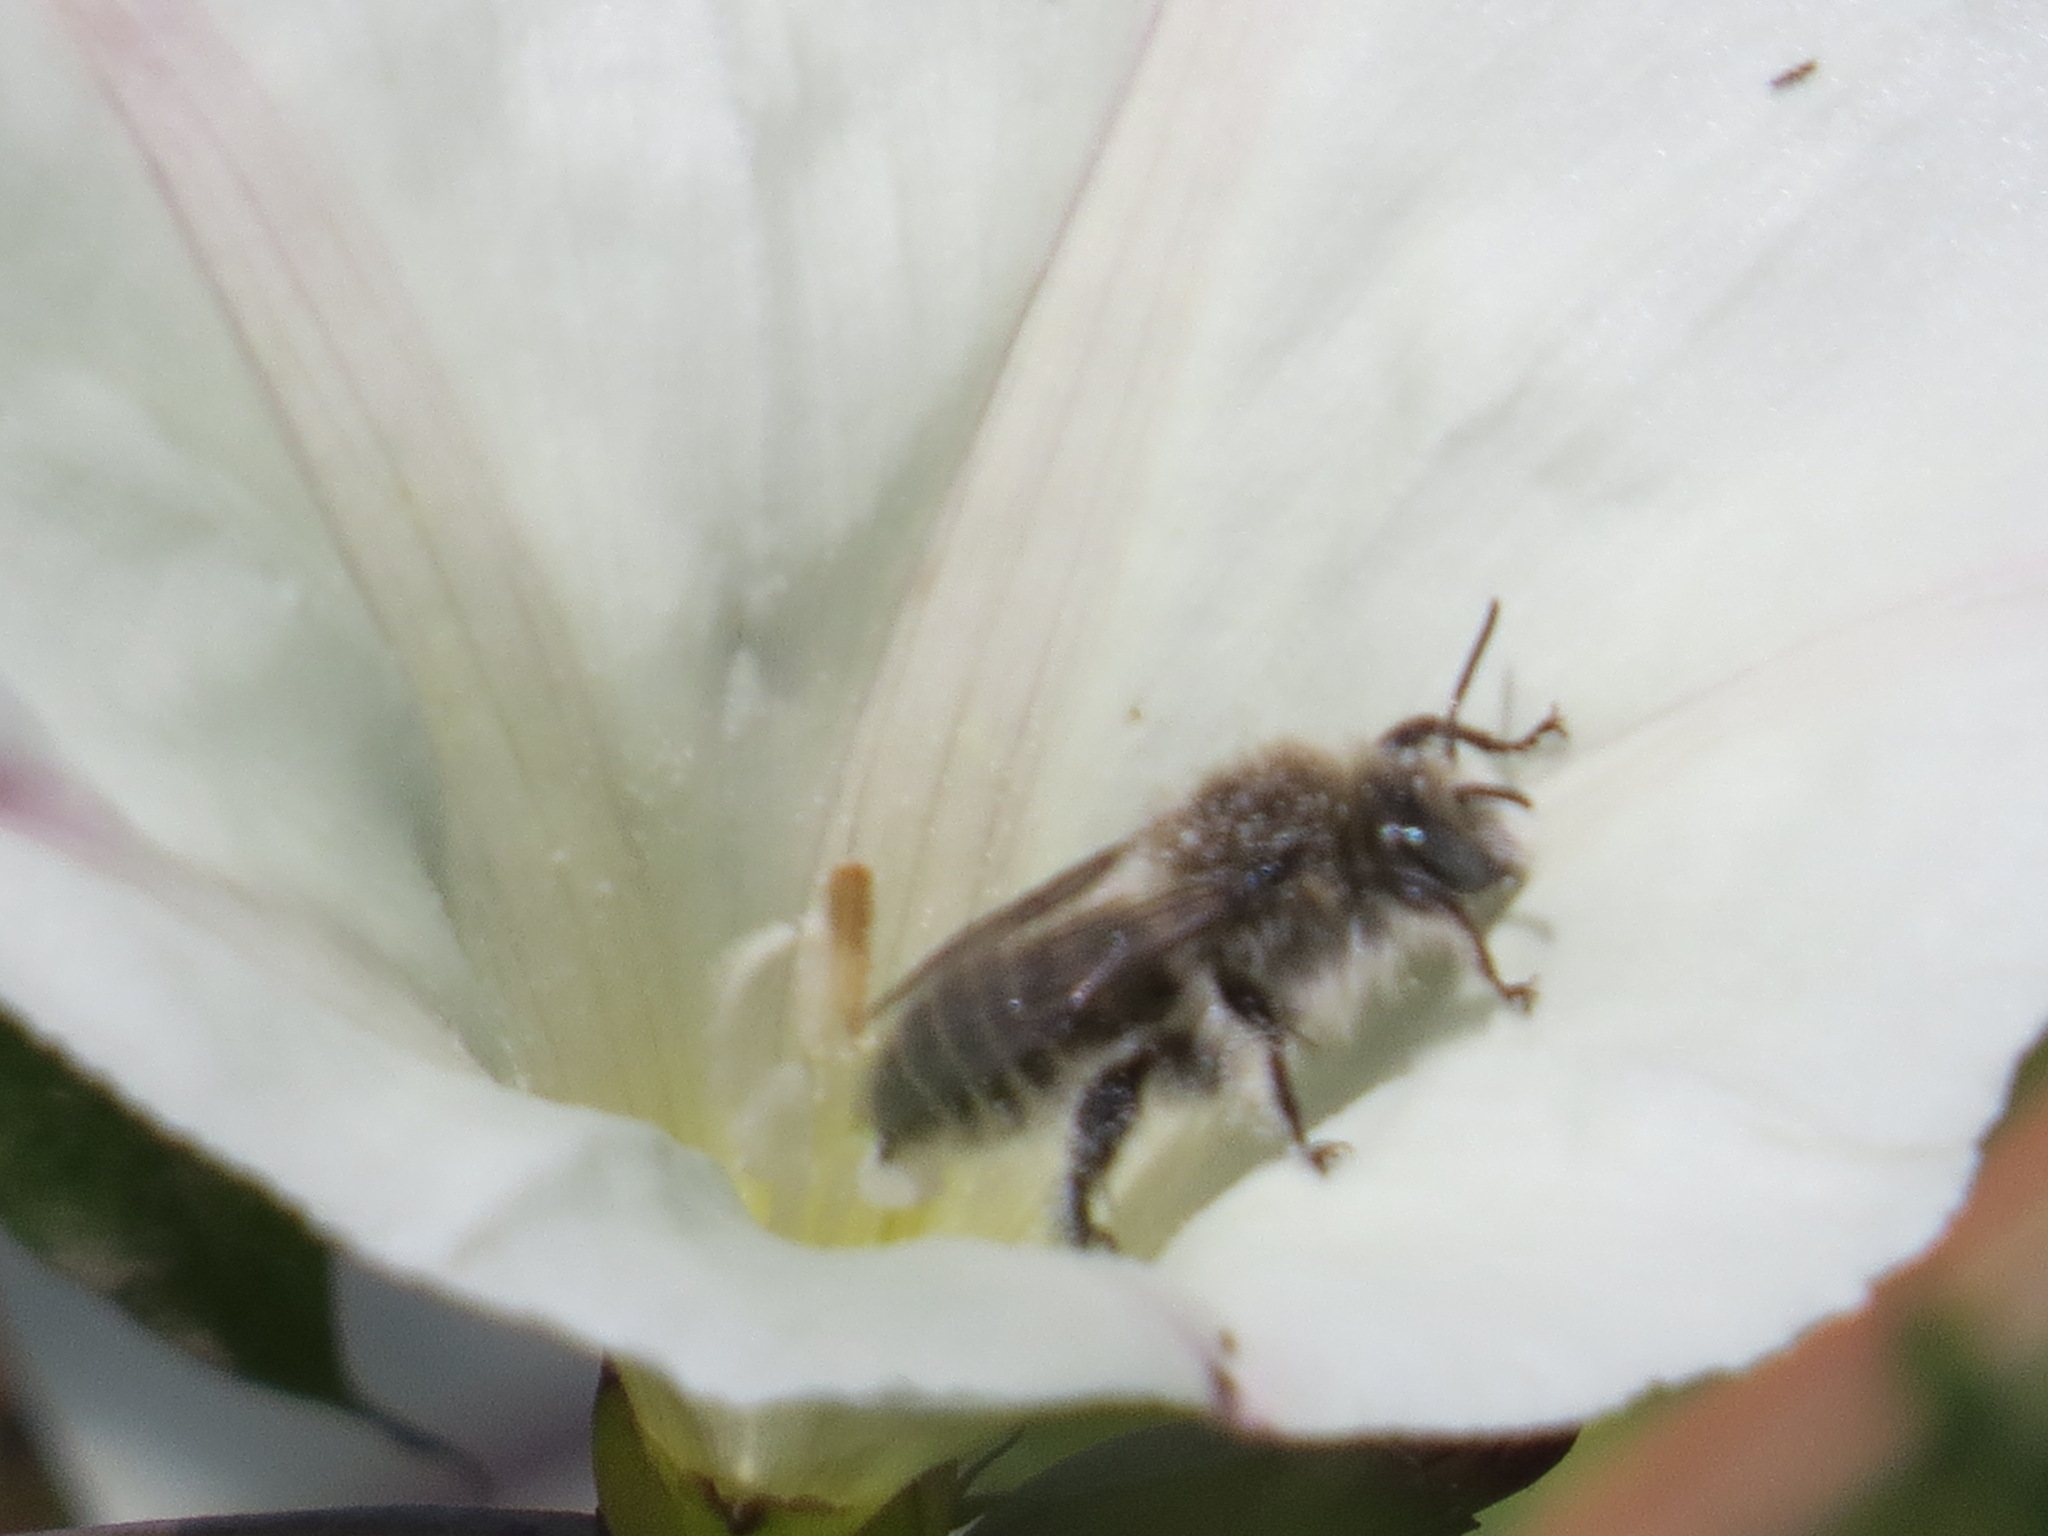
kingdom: Animalia
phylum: Arthropoda
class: Insecta
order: Hymenoptera
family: Apidae
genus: Diadasia
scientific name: Diadasia bituberculata
